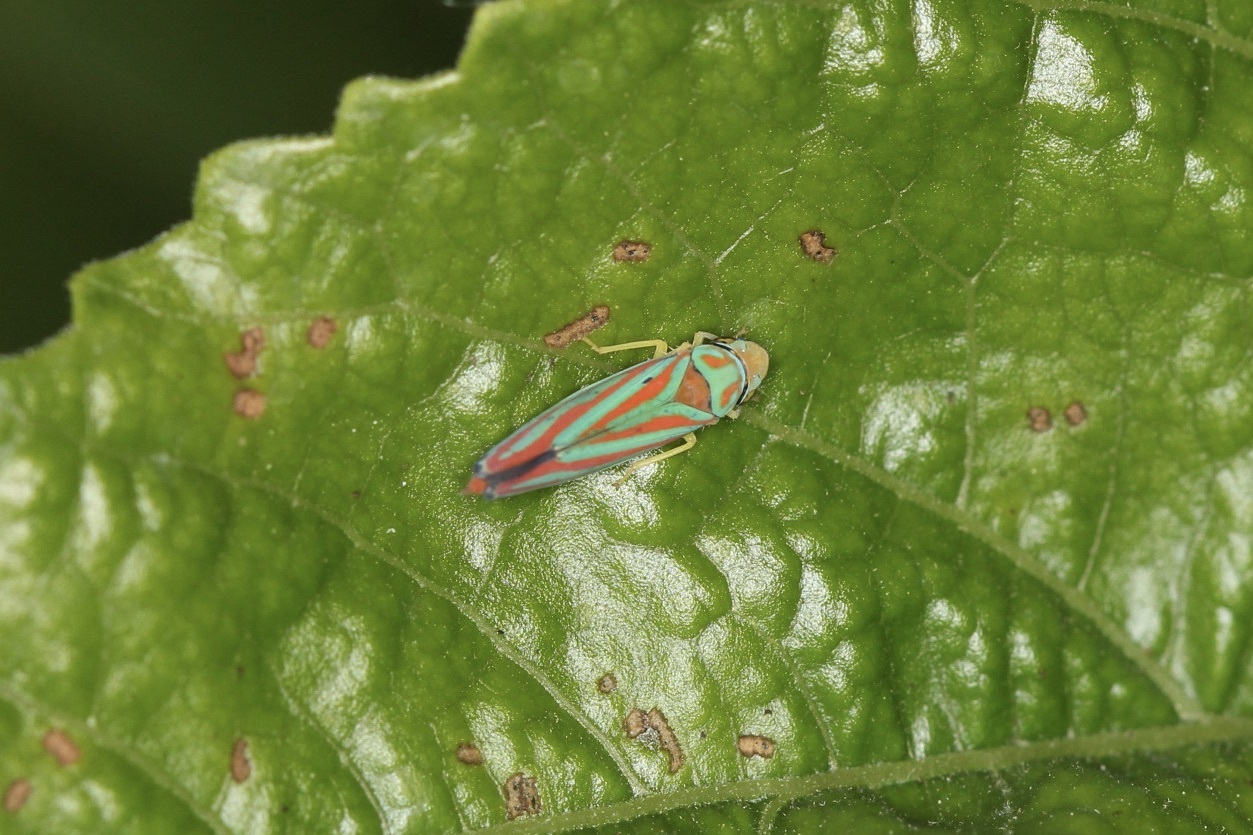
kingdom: Animalia
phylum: Arthropoda
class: Insecta
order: Hemiptera
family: Cicadellidae
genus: Graphocephala
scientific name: Graphocephala coccinea
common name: Candy-striped leafhopper
